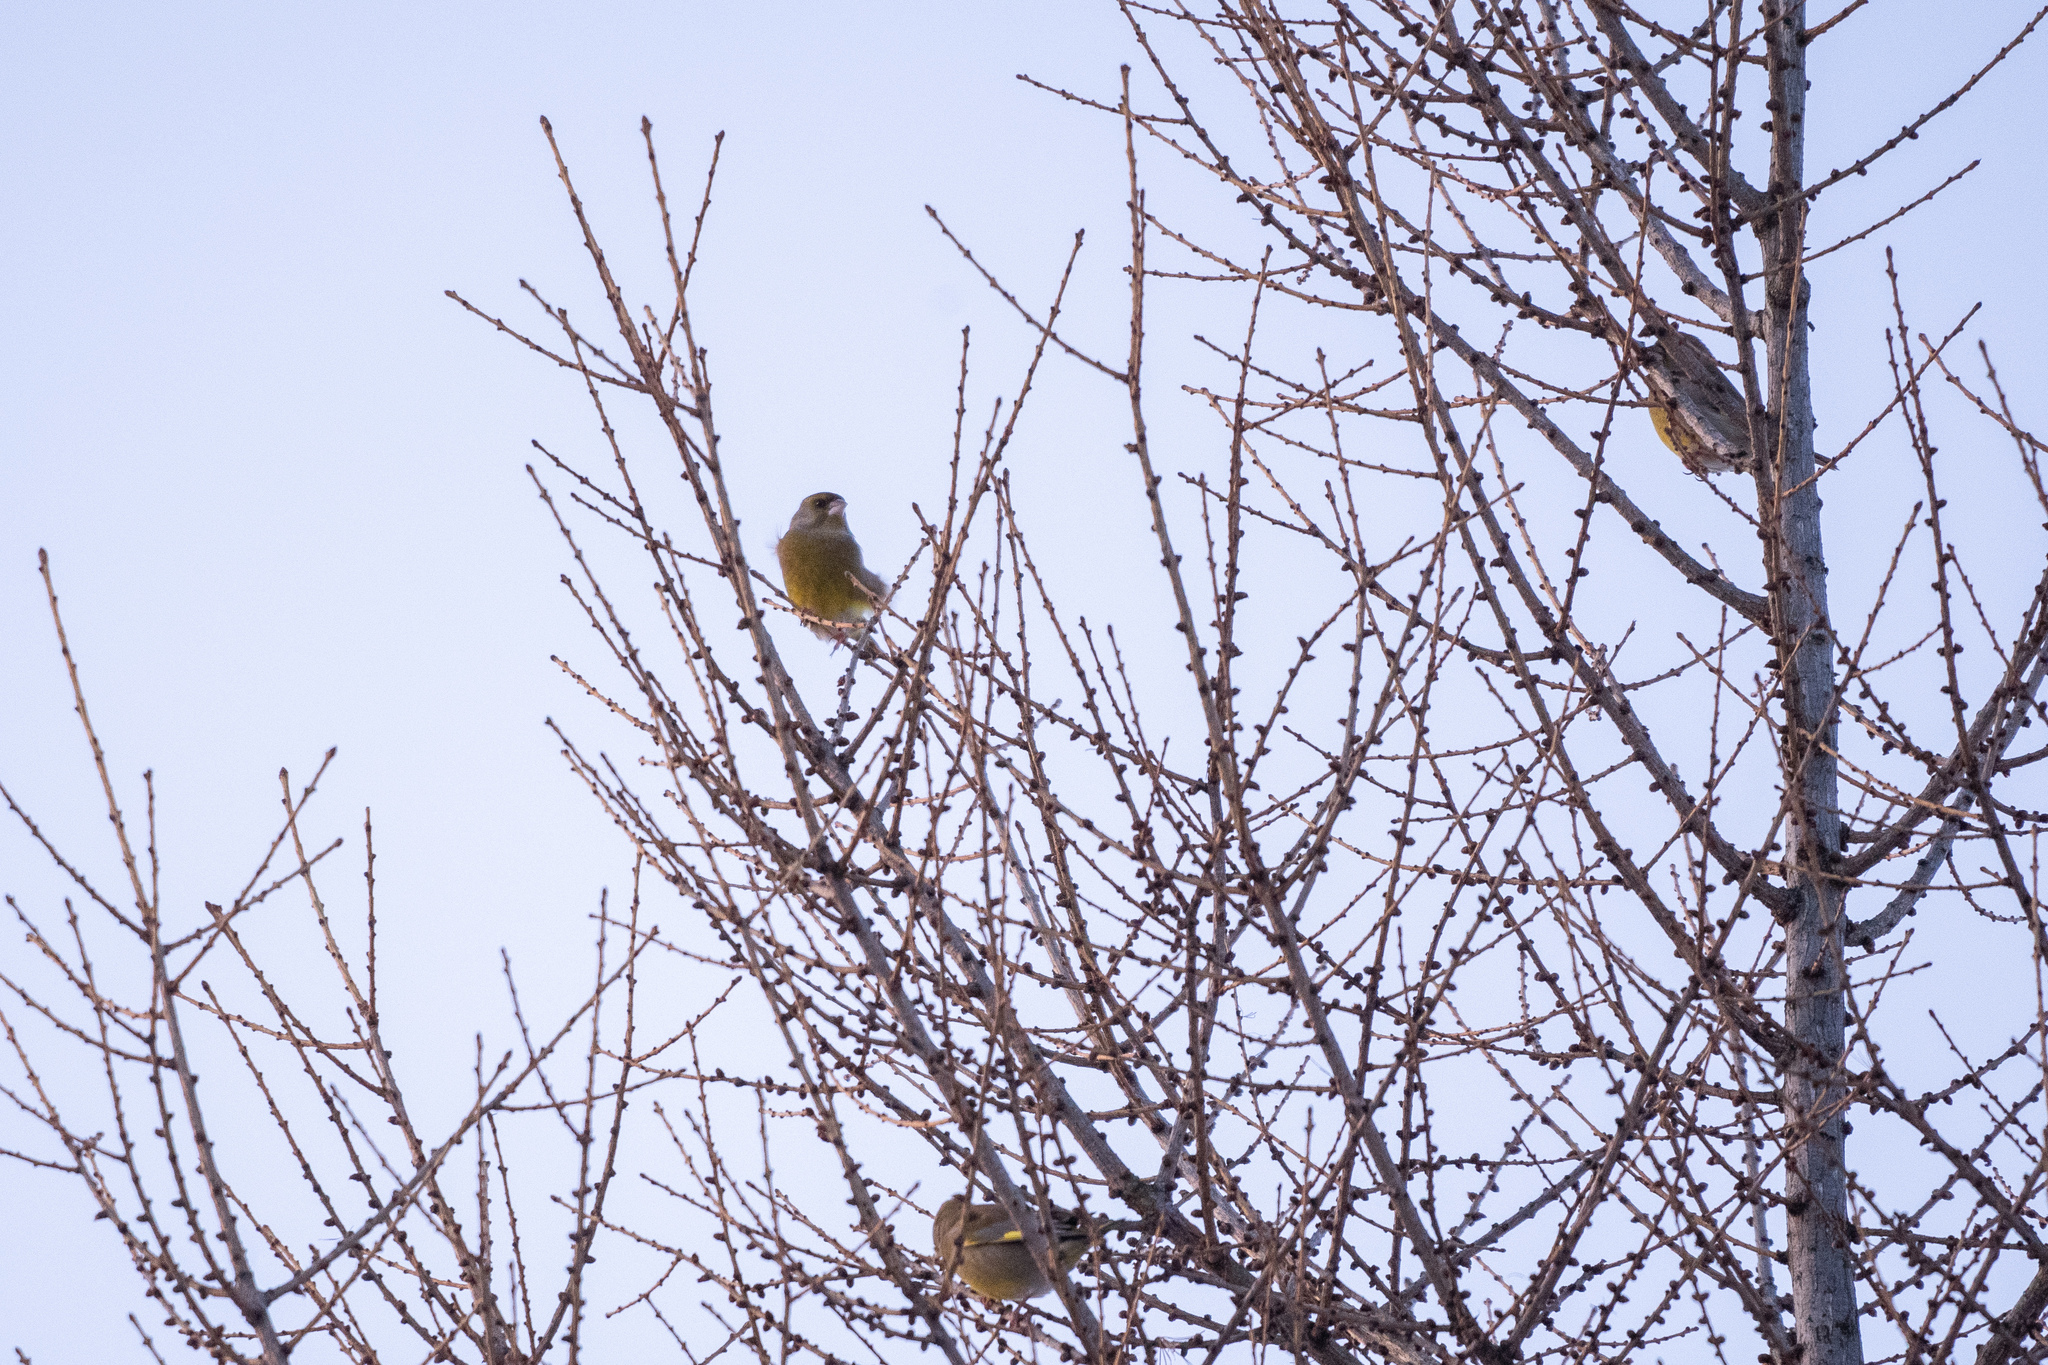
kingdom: Plantae
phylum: Tracheophyta
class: Liliopsida
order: Poales
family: Poaceae
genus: Chloris
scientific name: Chloris chloris
